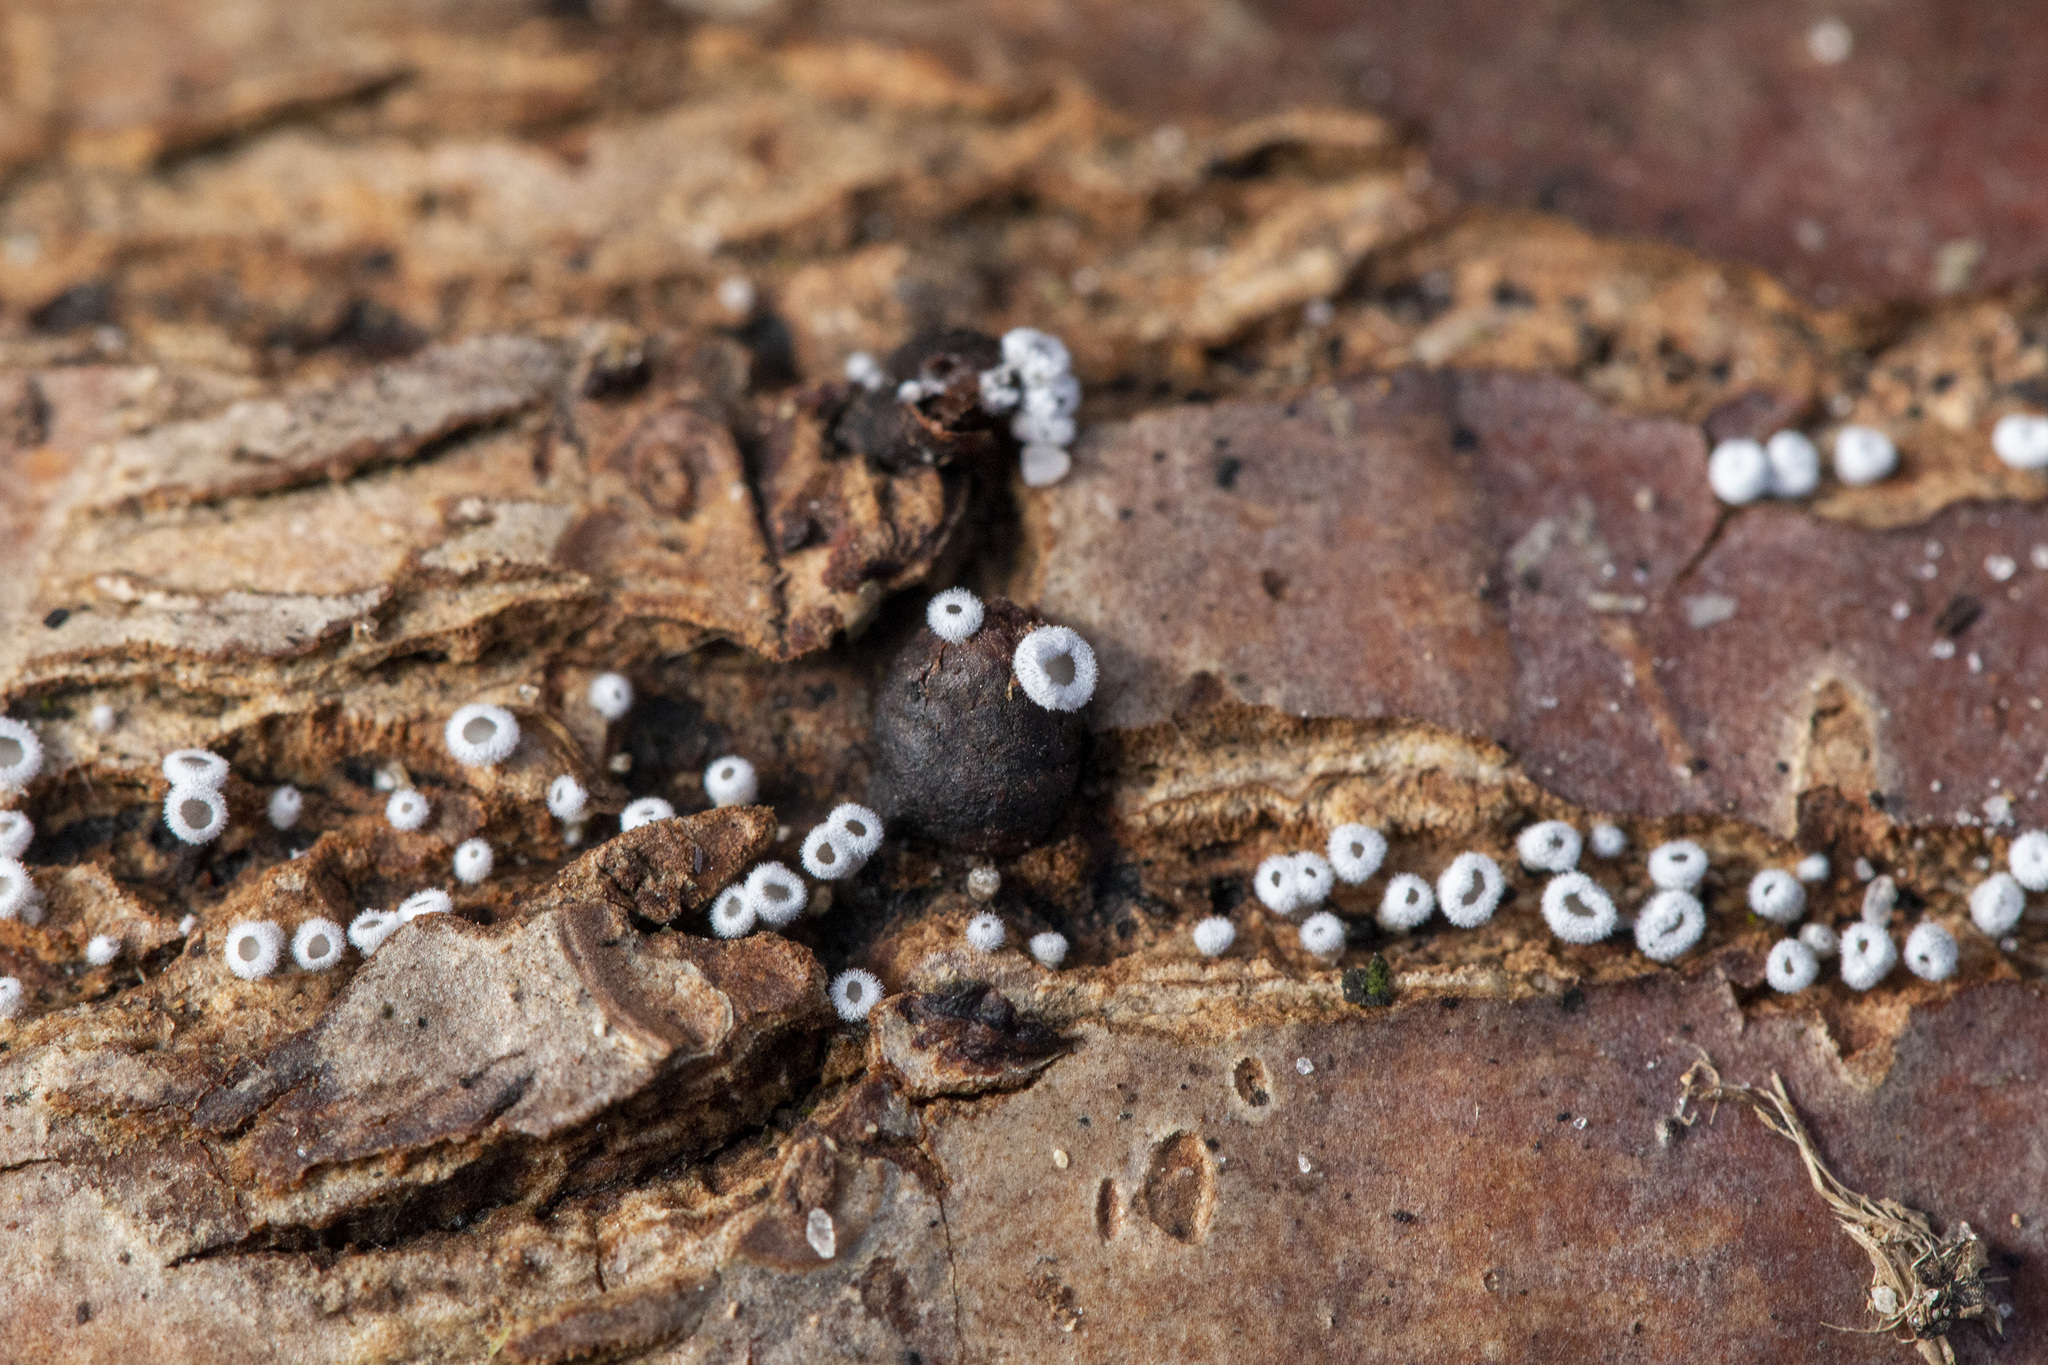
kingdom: Fungi
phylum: Basidiomycota
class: Agaricomycetes
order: Agaricales
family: Niaceae
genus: Lachnella
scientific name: Lachnella alboviolascens
